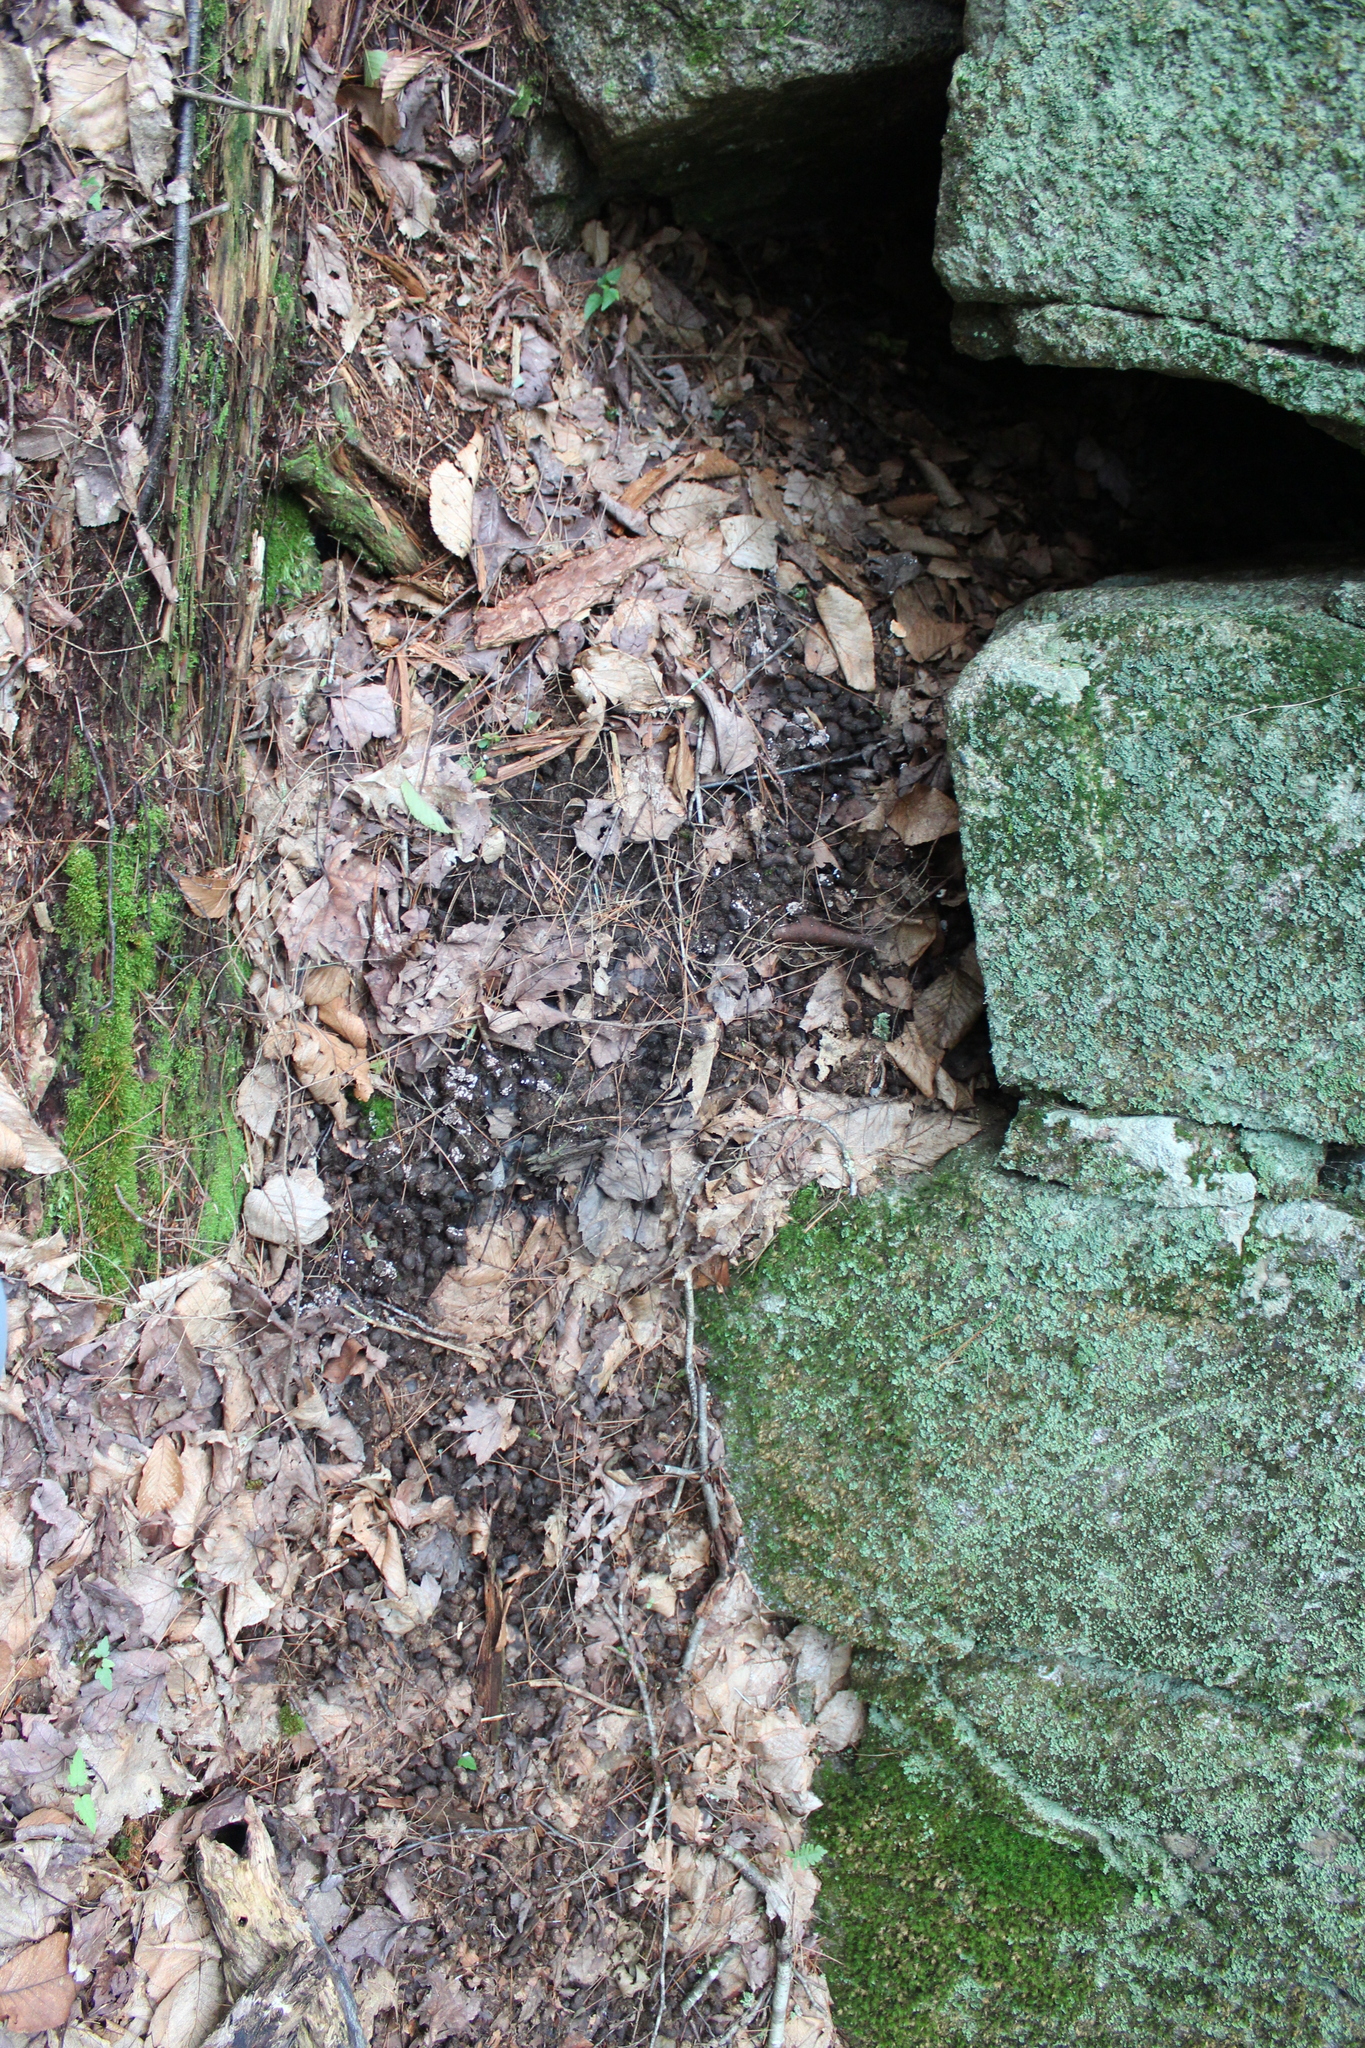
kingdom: Animalia
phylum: Chordata
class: Mammalia
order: Rodentia
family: Erethizontidae
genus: Erethizon
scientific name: Erethizon dorsatus
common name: North american porcupine
